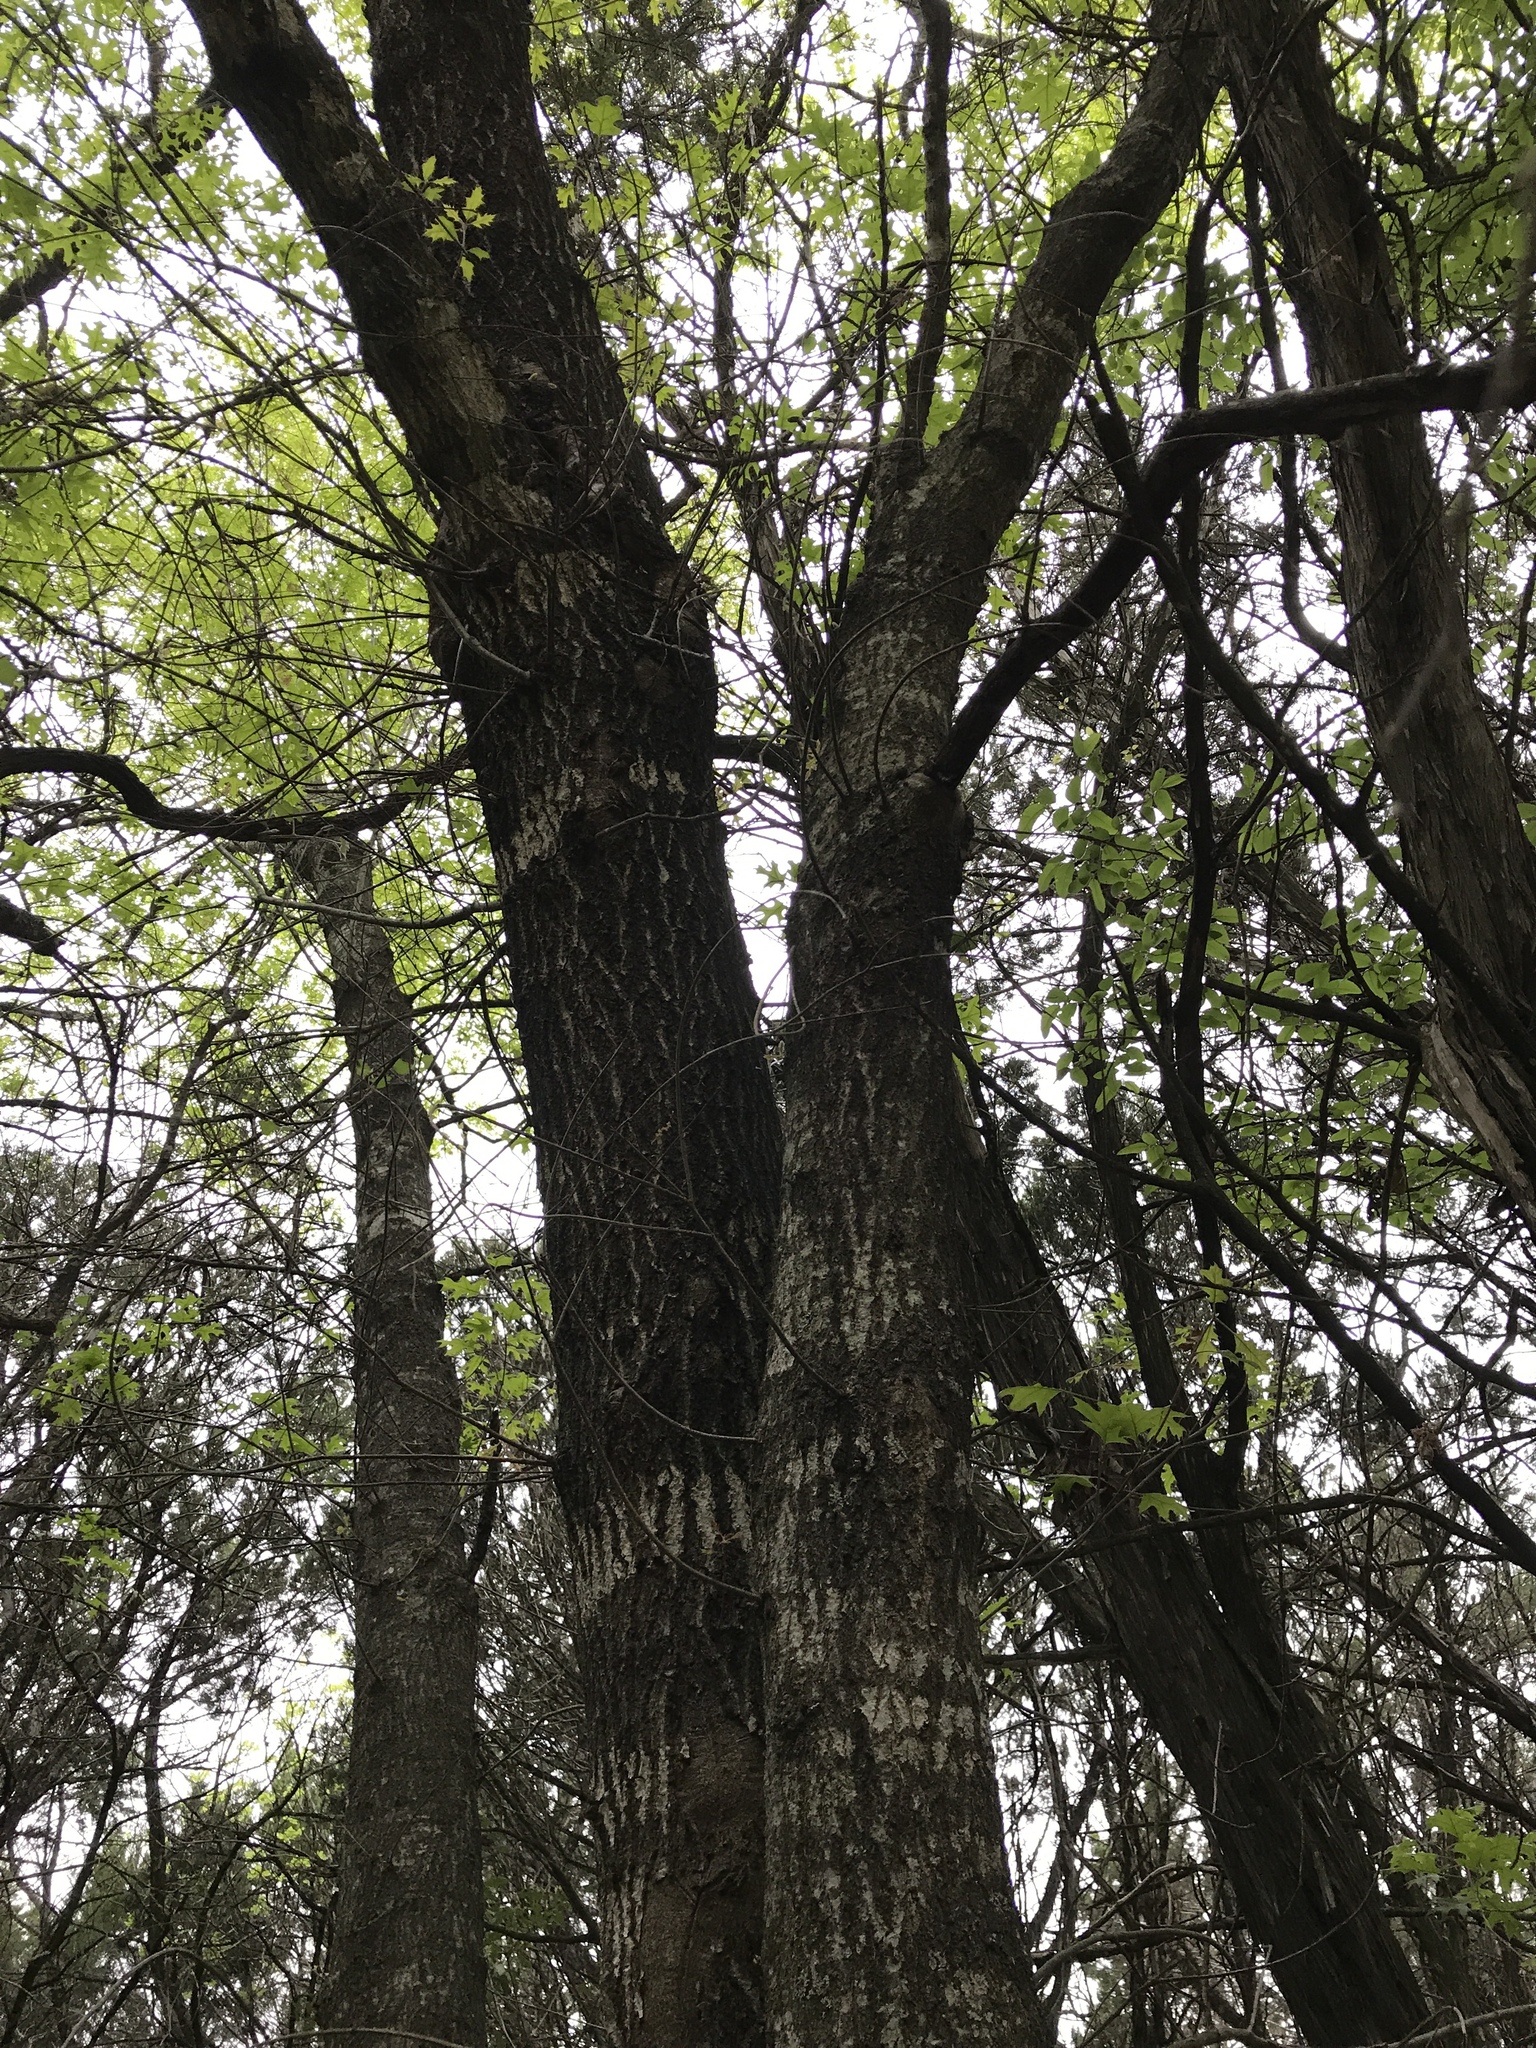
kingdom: Plantae
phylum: Tracheophyta
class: Magnoliopsida
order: Fagales
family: Fagaceae
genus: Quercus
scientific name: Quercus buckleyi
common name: Buckley oak
